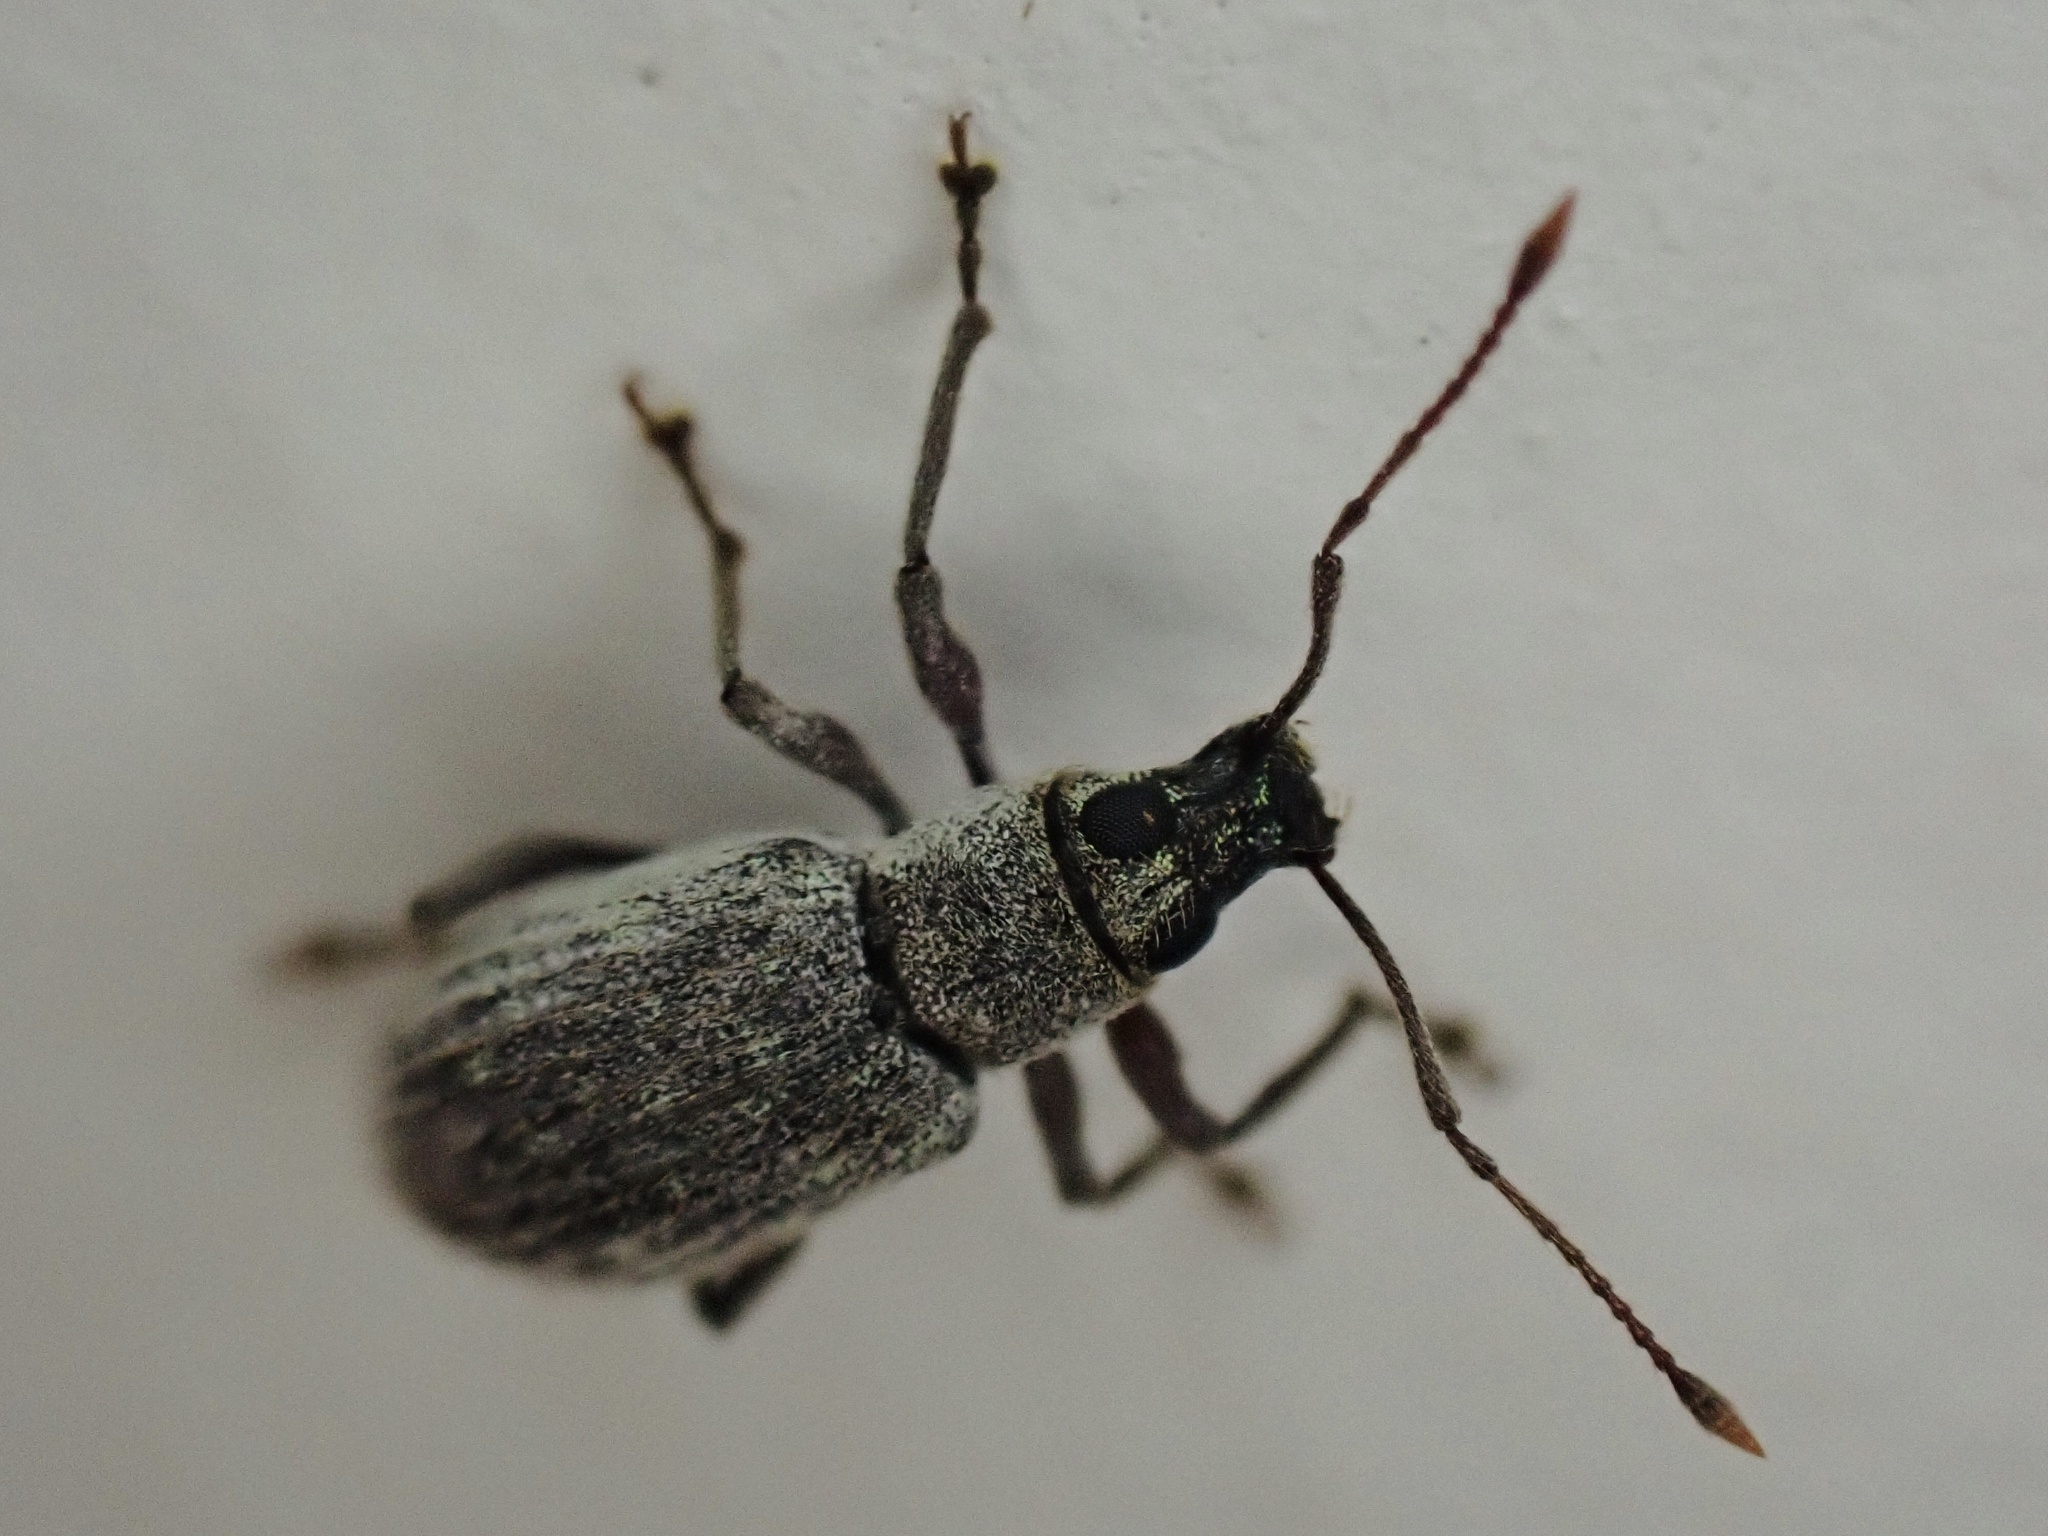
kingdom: Animalia
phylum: Arthropoda
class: Insecta
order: Coleoptera
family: Curculionidae
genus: Cyrtepistomus
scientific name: Cyrtepistomus castaneus
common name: Weevil
